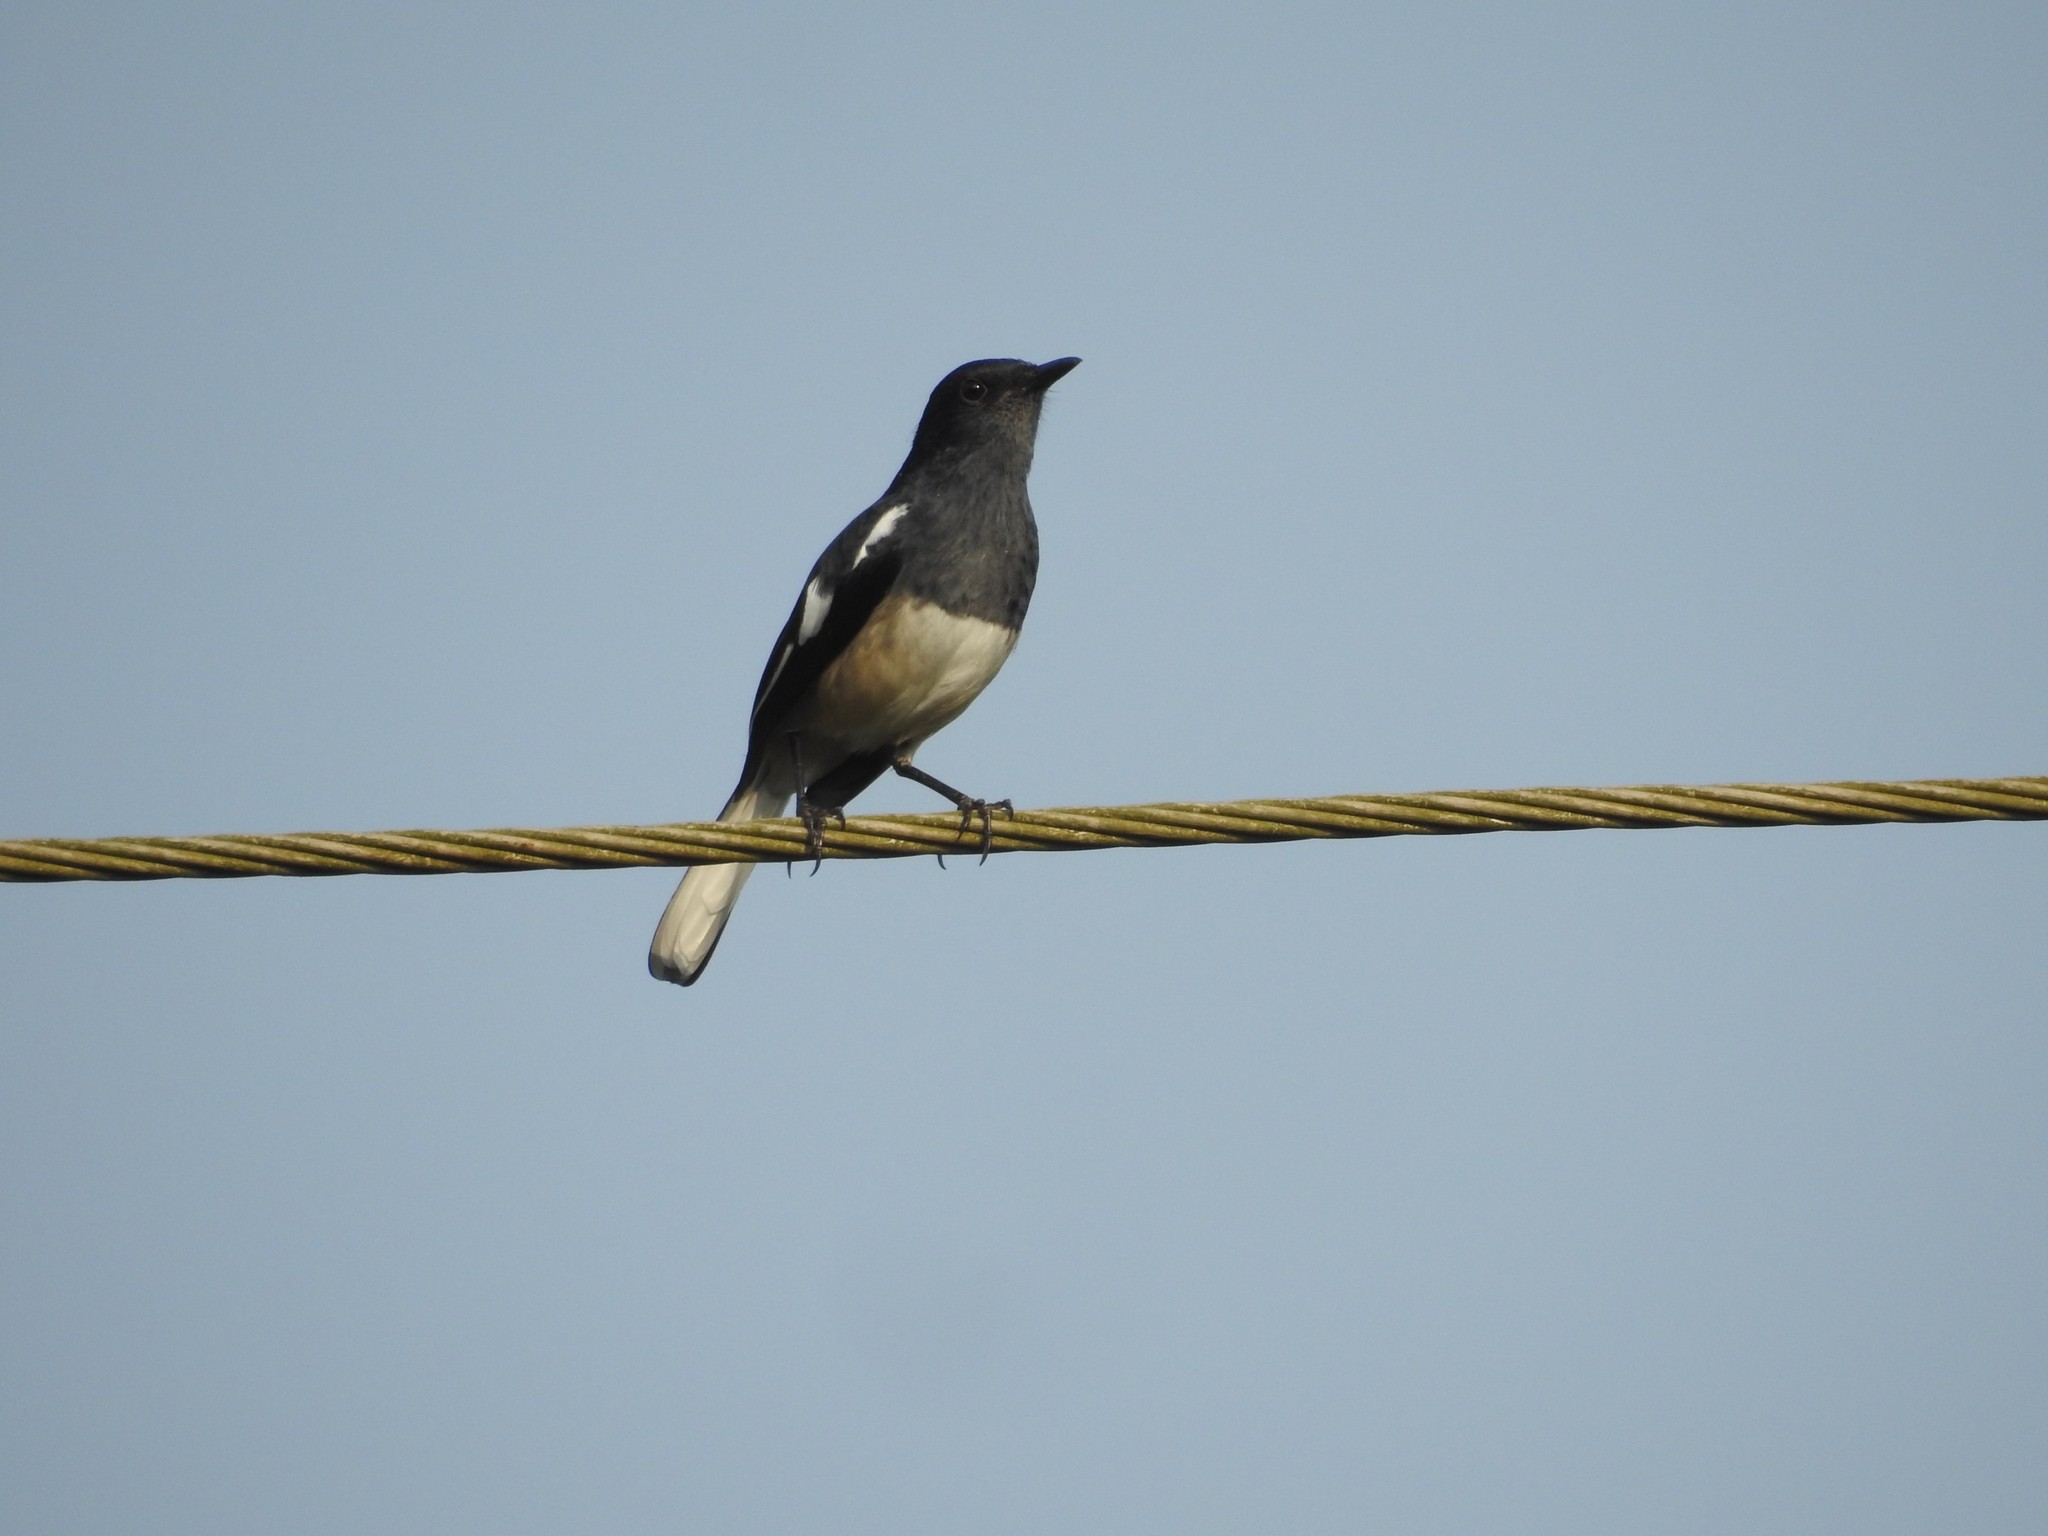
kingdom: Animalia
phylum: Chordata
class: Aves
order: Passeriformes
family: Muscicapidae
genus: Copsychus
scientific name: Copsychus saularis
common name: Oriental magpie-robin
